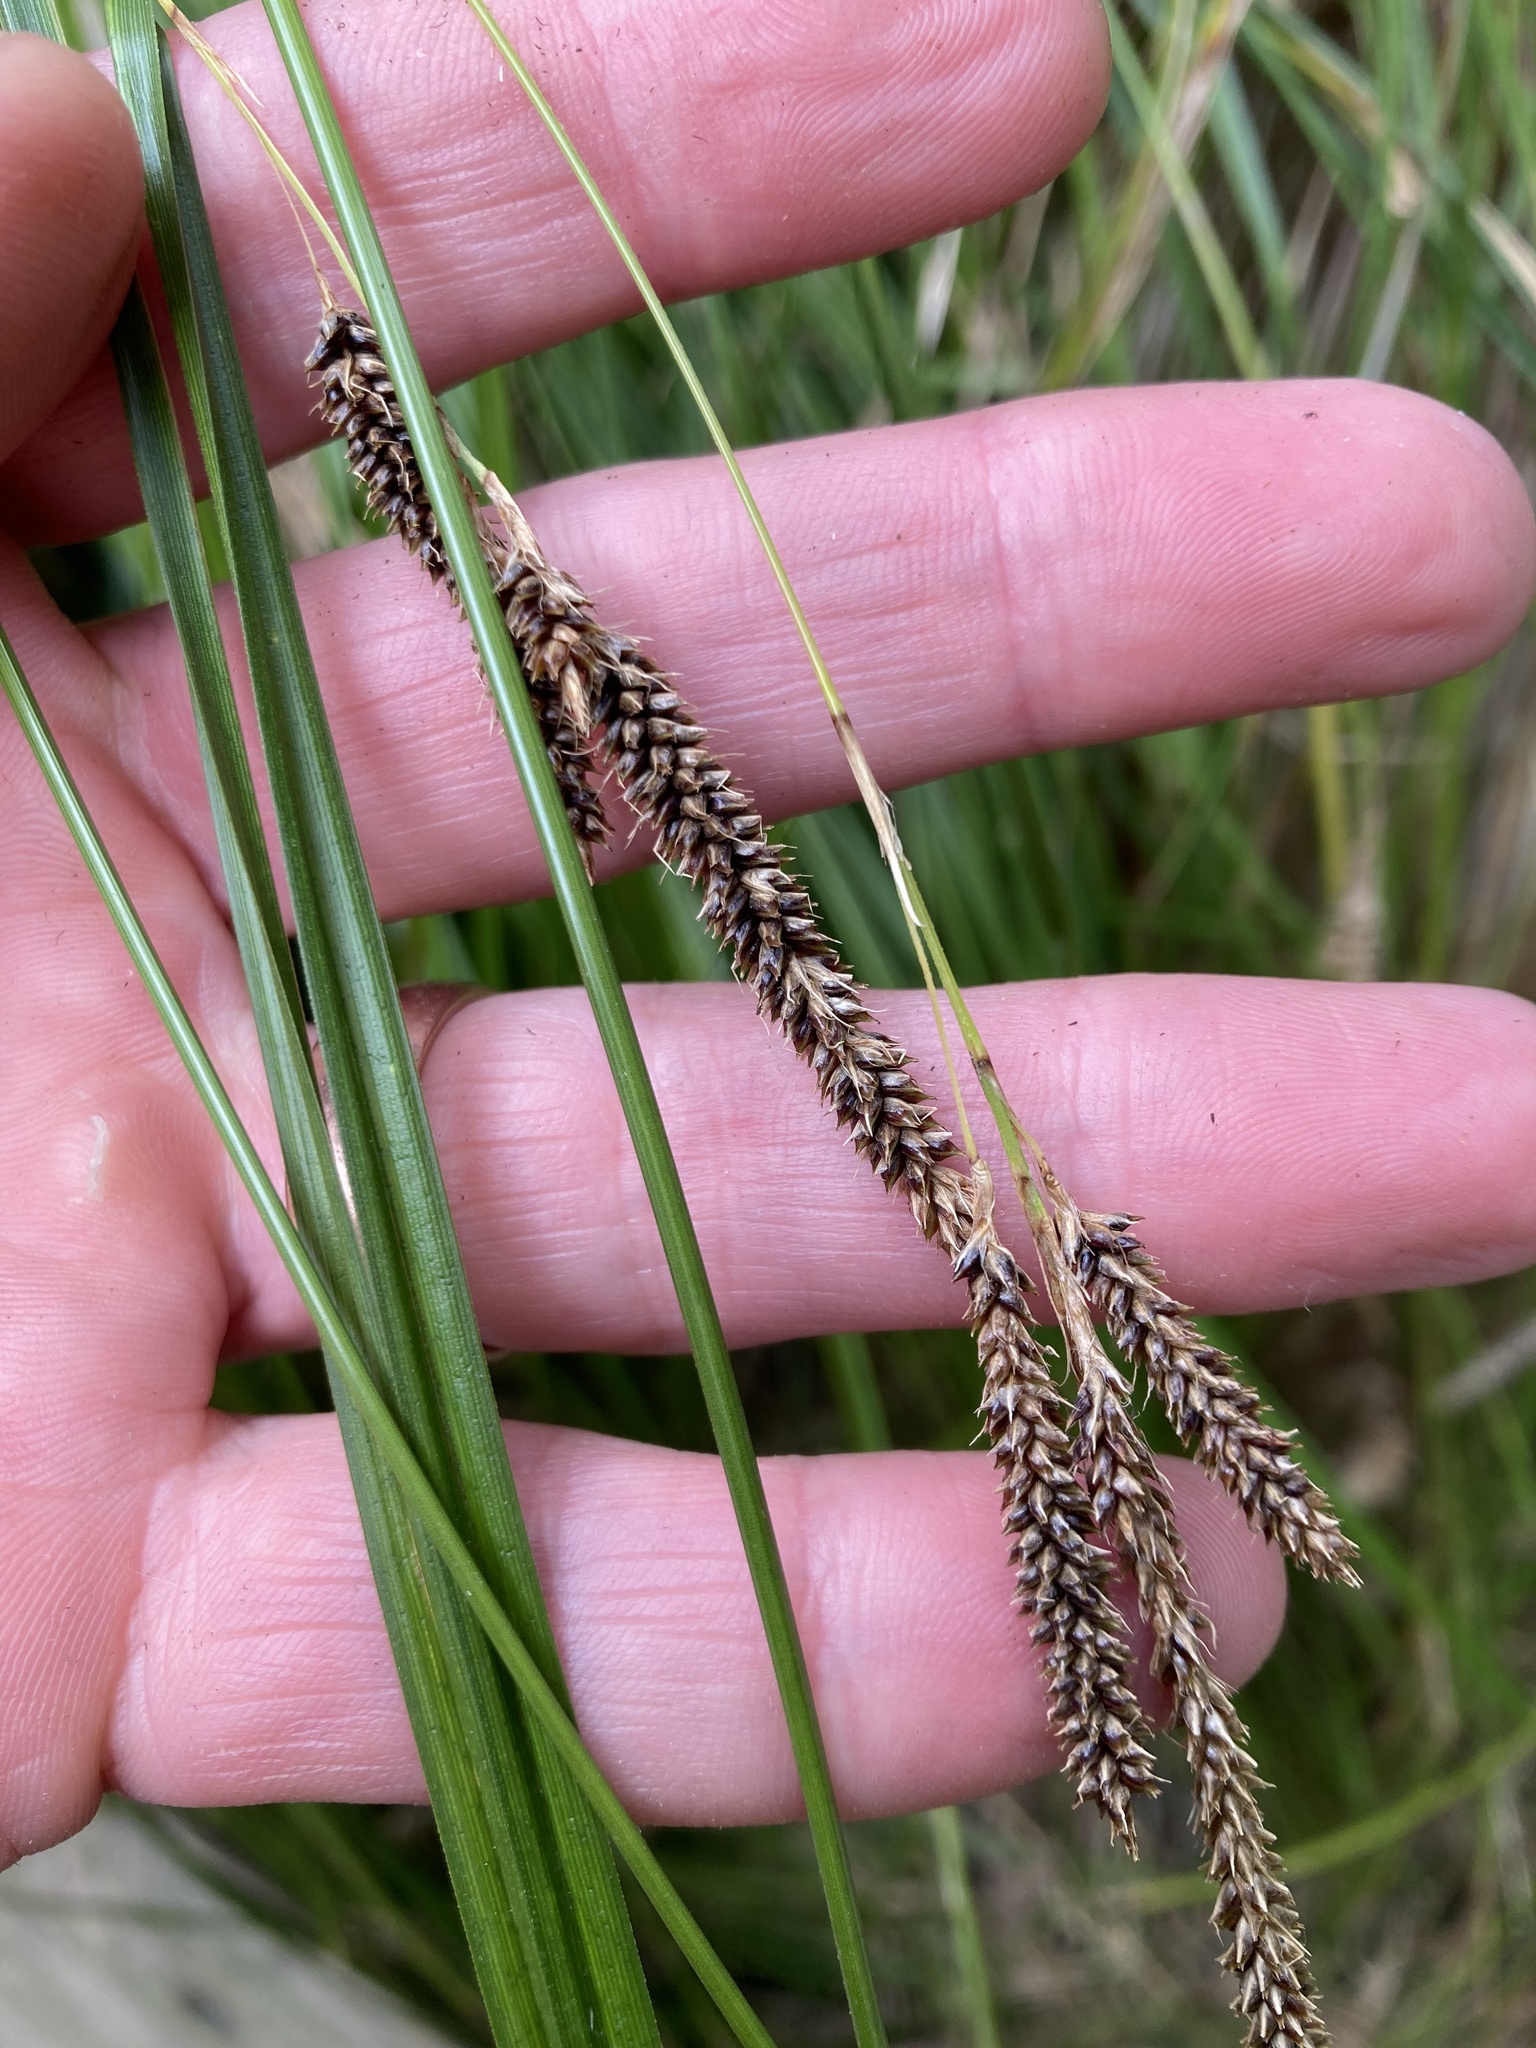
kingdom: Plantae
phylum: Tracheophyta
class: Liliopsida
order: Poales
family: Cyperaceae
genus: Carex
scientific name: Carex solandri
